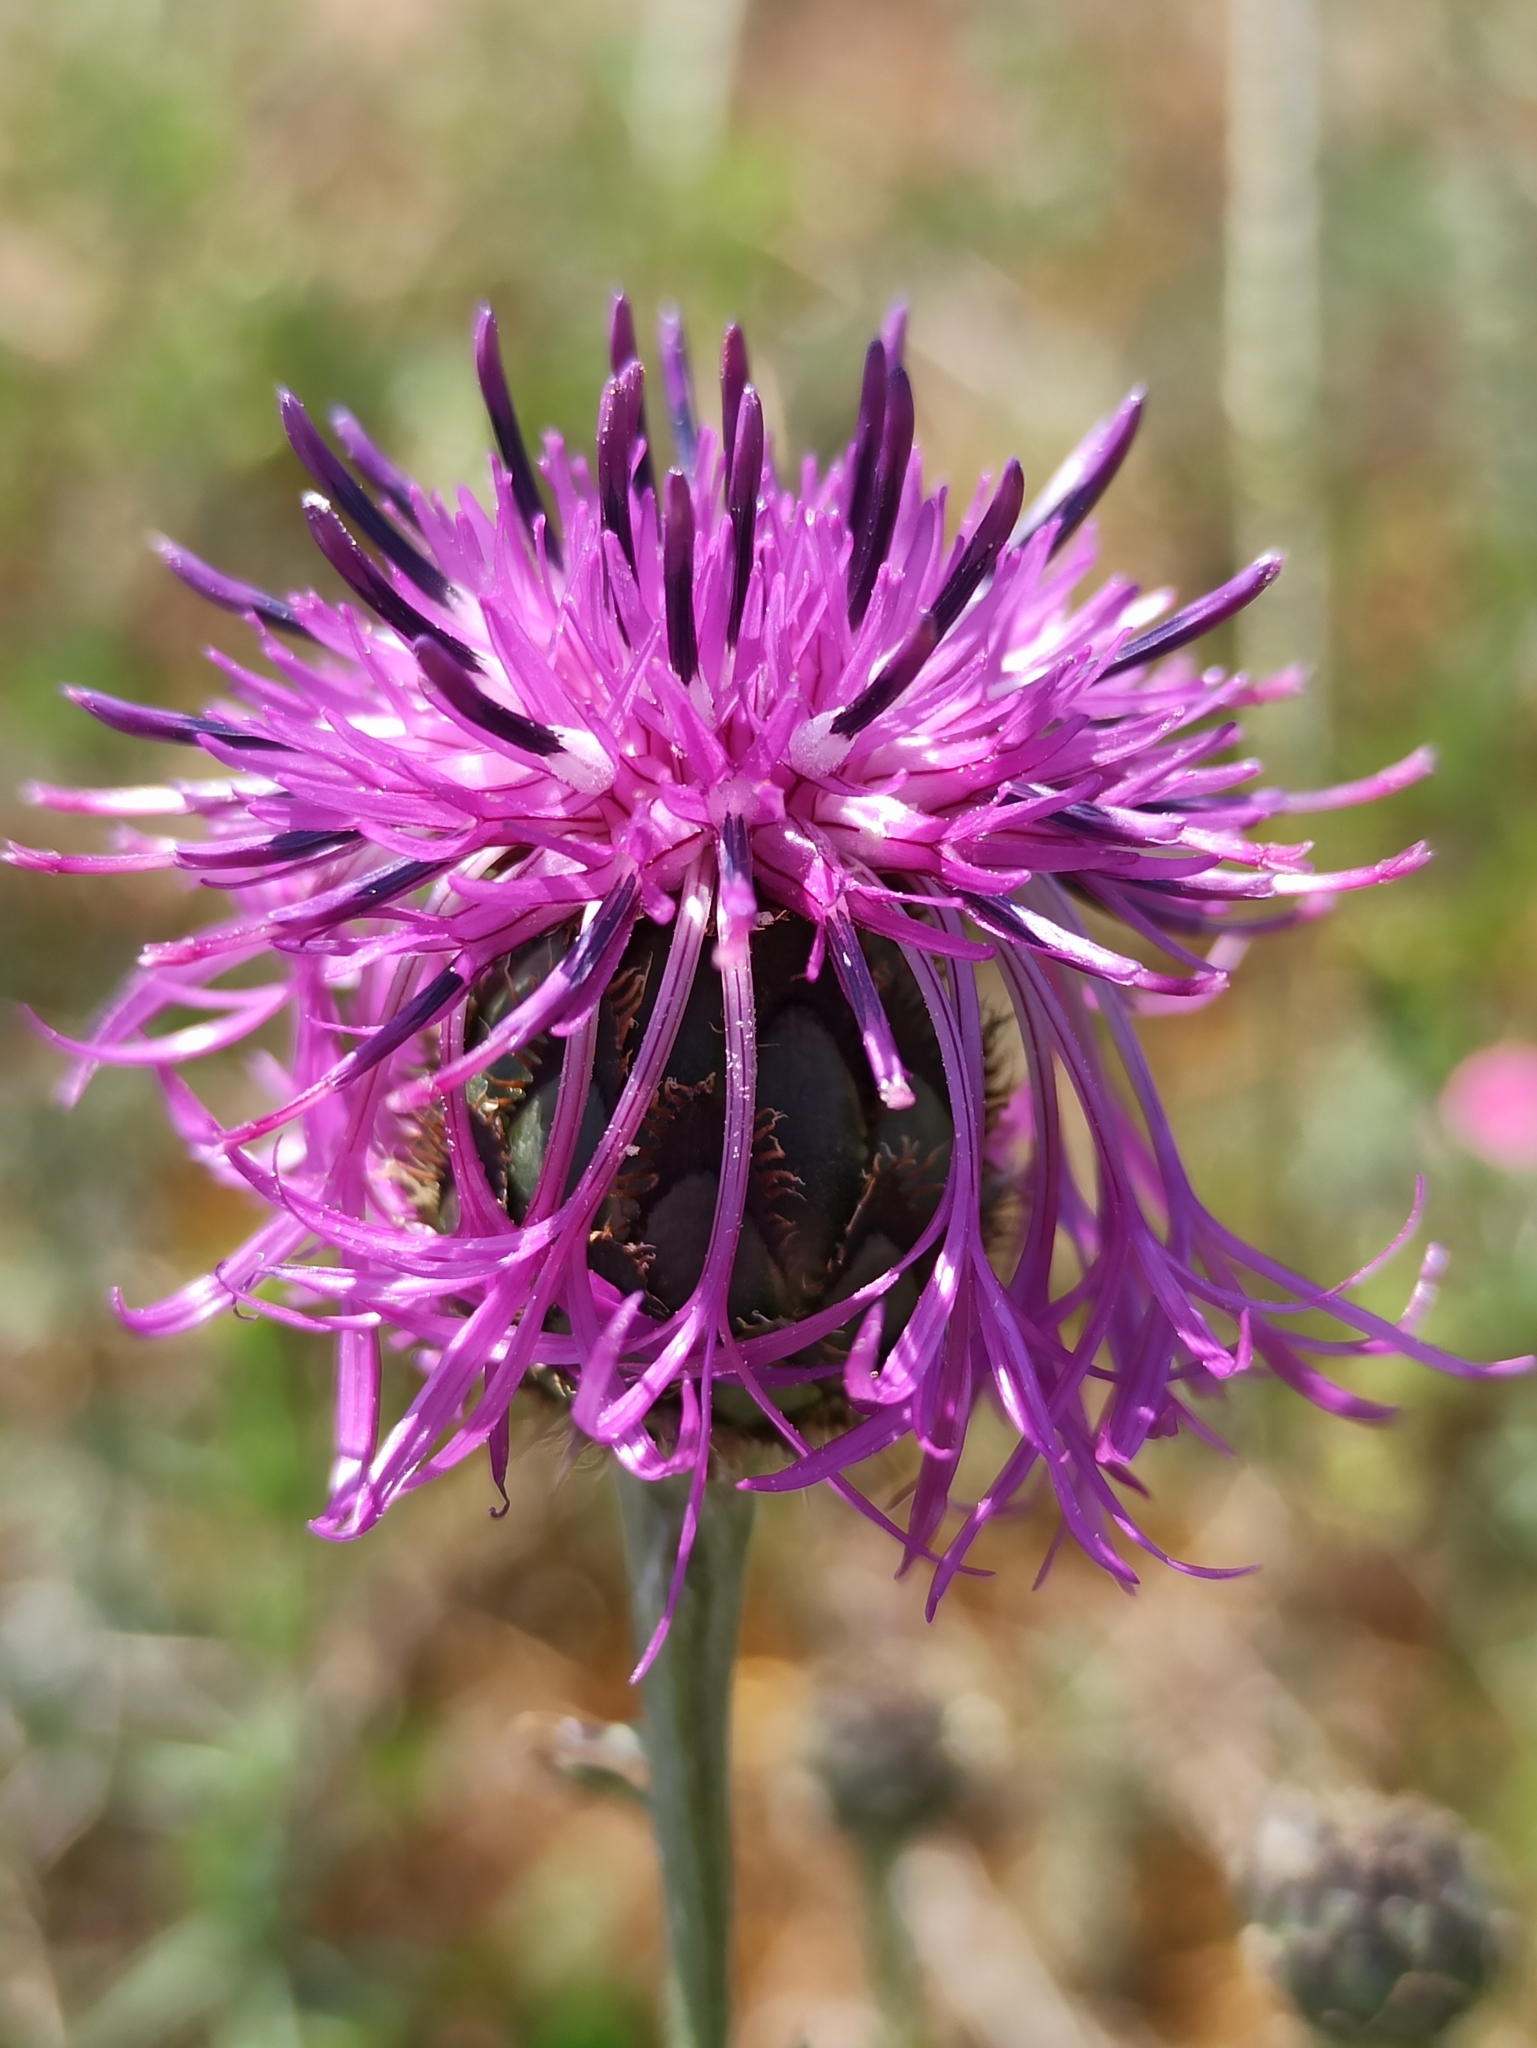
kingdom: Plantae
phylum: Tracheophyta
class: Magnoliopsida
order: Asterales
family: Asteraceae
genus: Centaurea
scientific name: Centaurea scabiosa
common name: Greater knapweed
